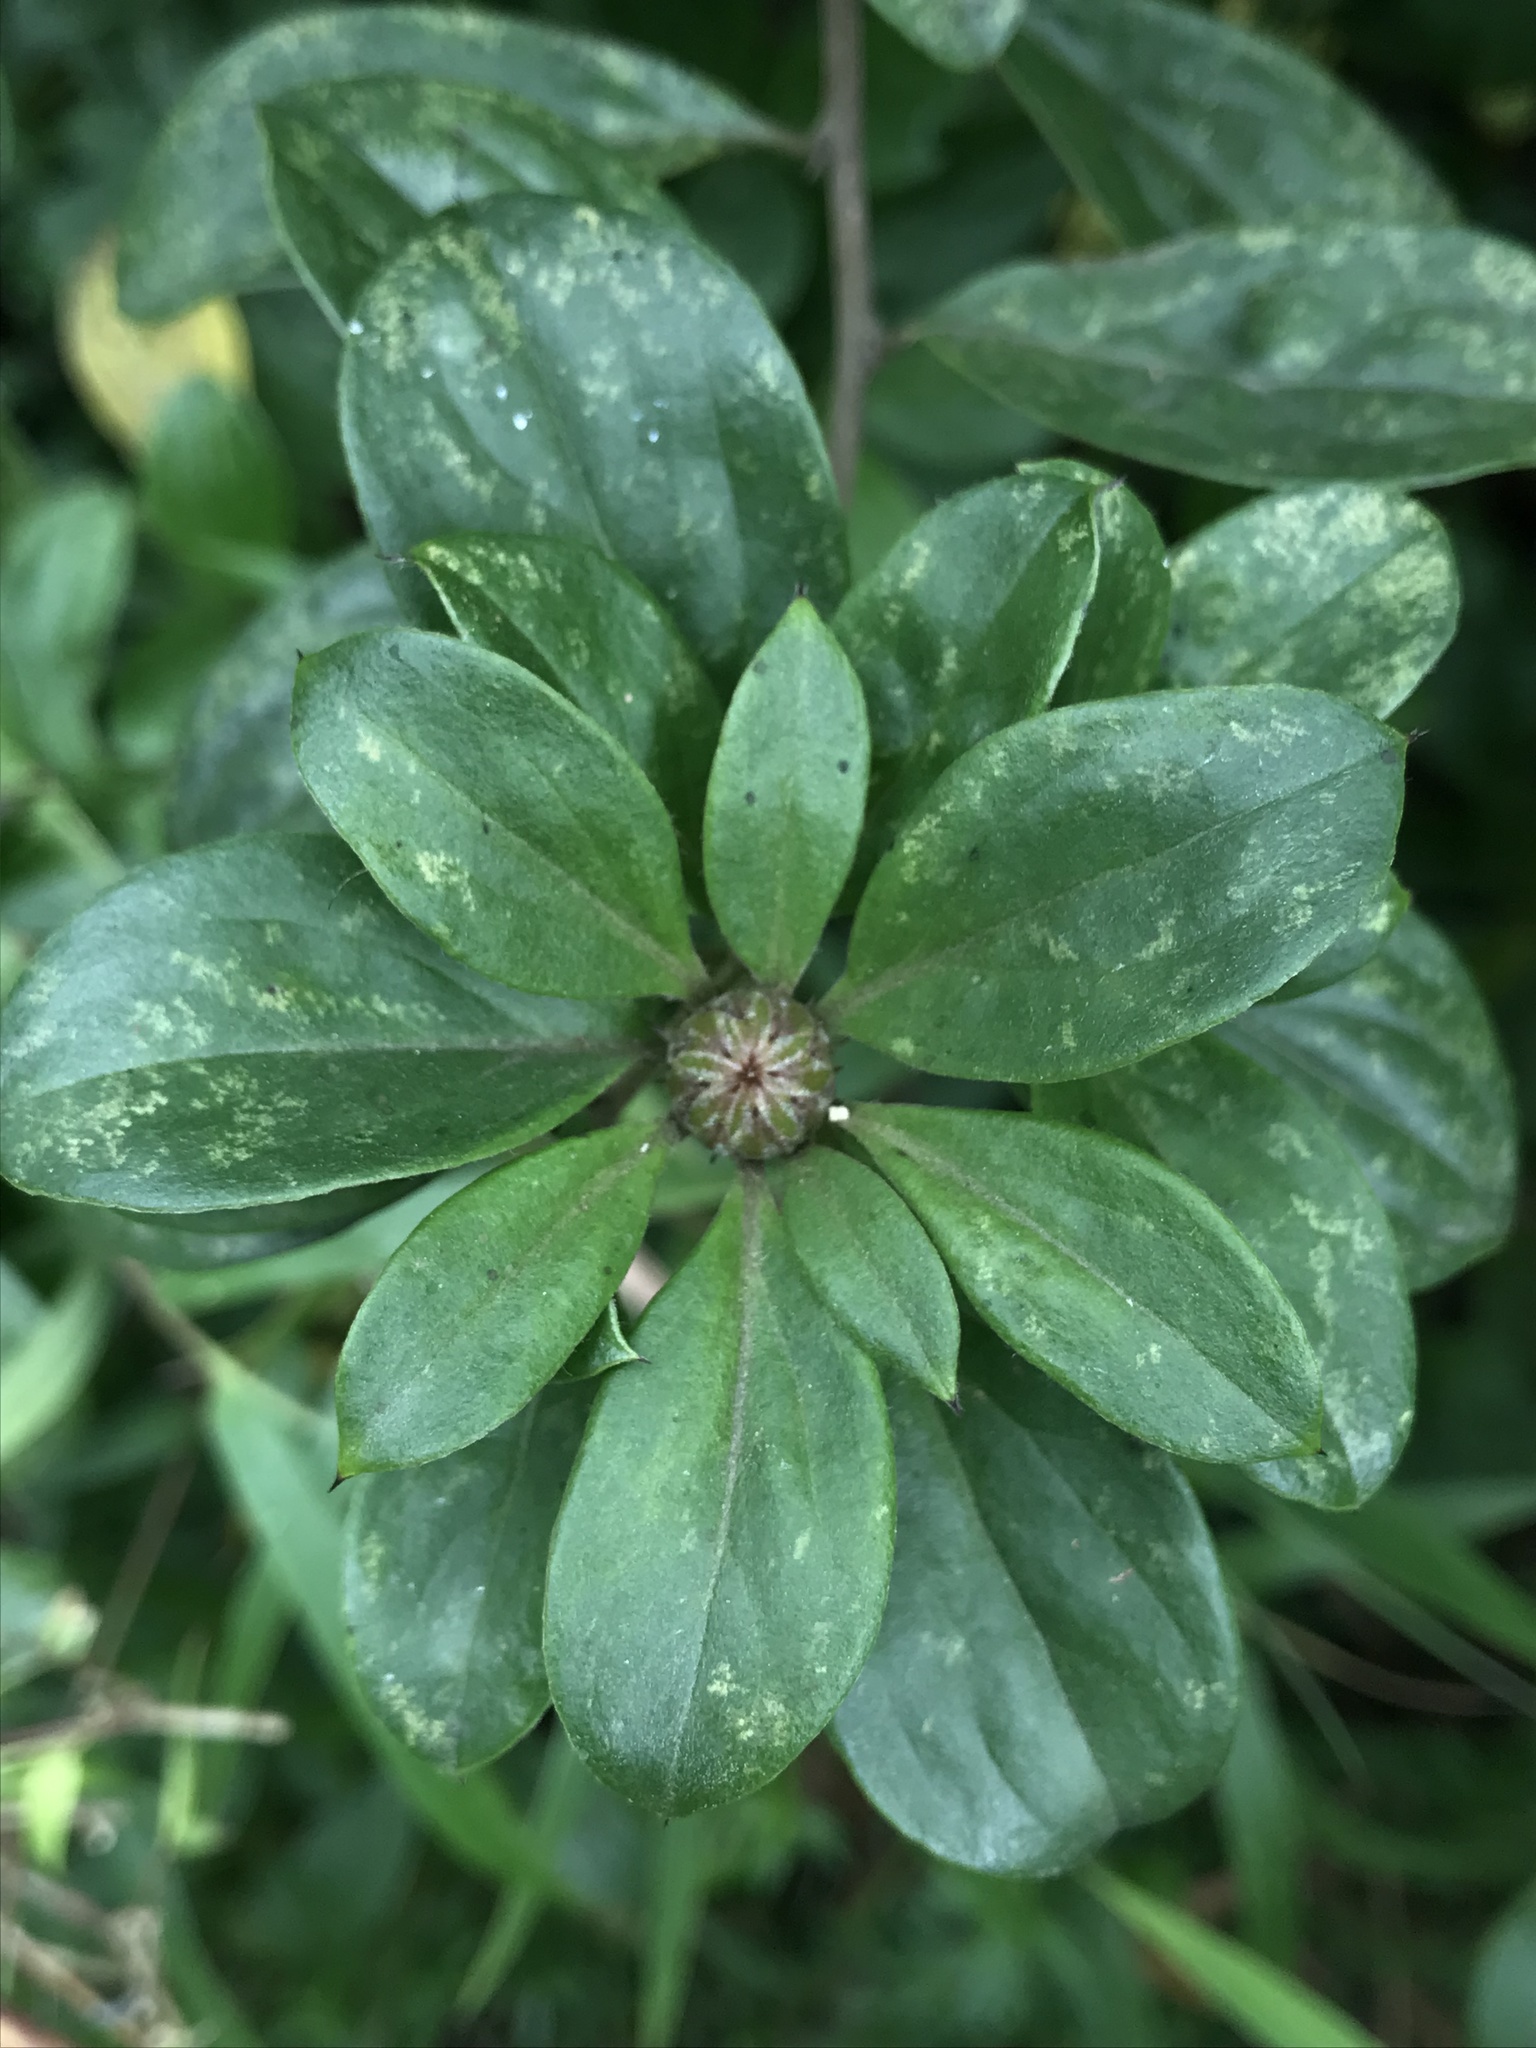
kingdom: Plantae
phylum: Tracheophyta
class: Magnoliopsida
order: Asterales
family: Asteraceae
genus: Barnadesia
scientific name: Barnadesia spinosa
